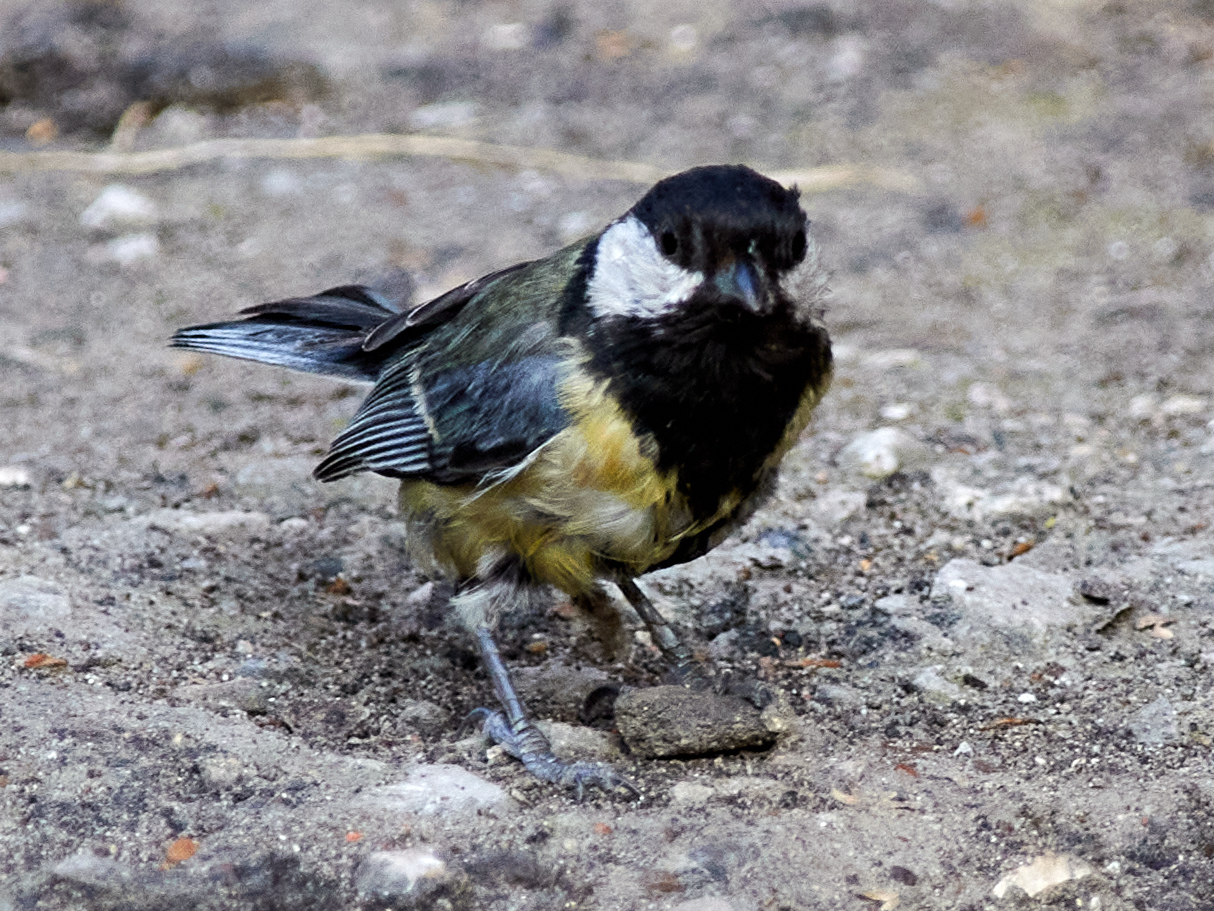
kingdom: Animalia
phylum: Chordata
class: Aves
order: Passeriformes
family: Paridae
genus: Parus
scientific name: Parus major
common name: Great tit
